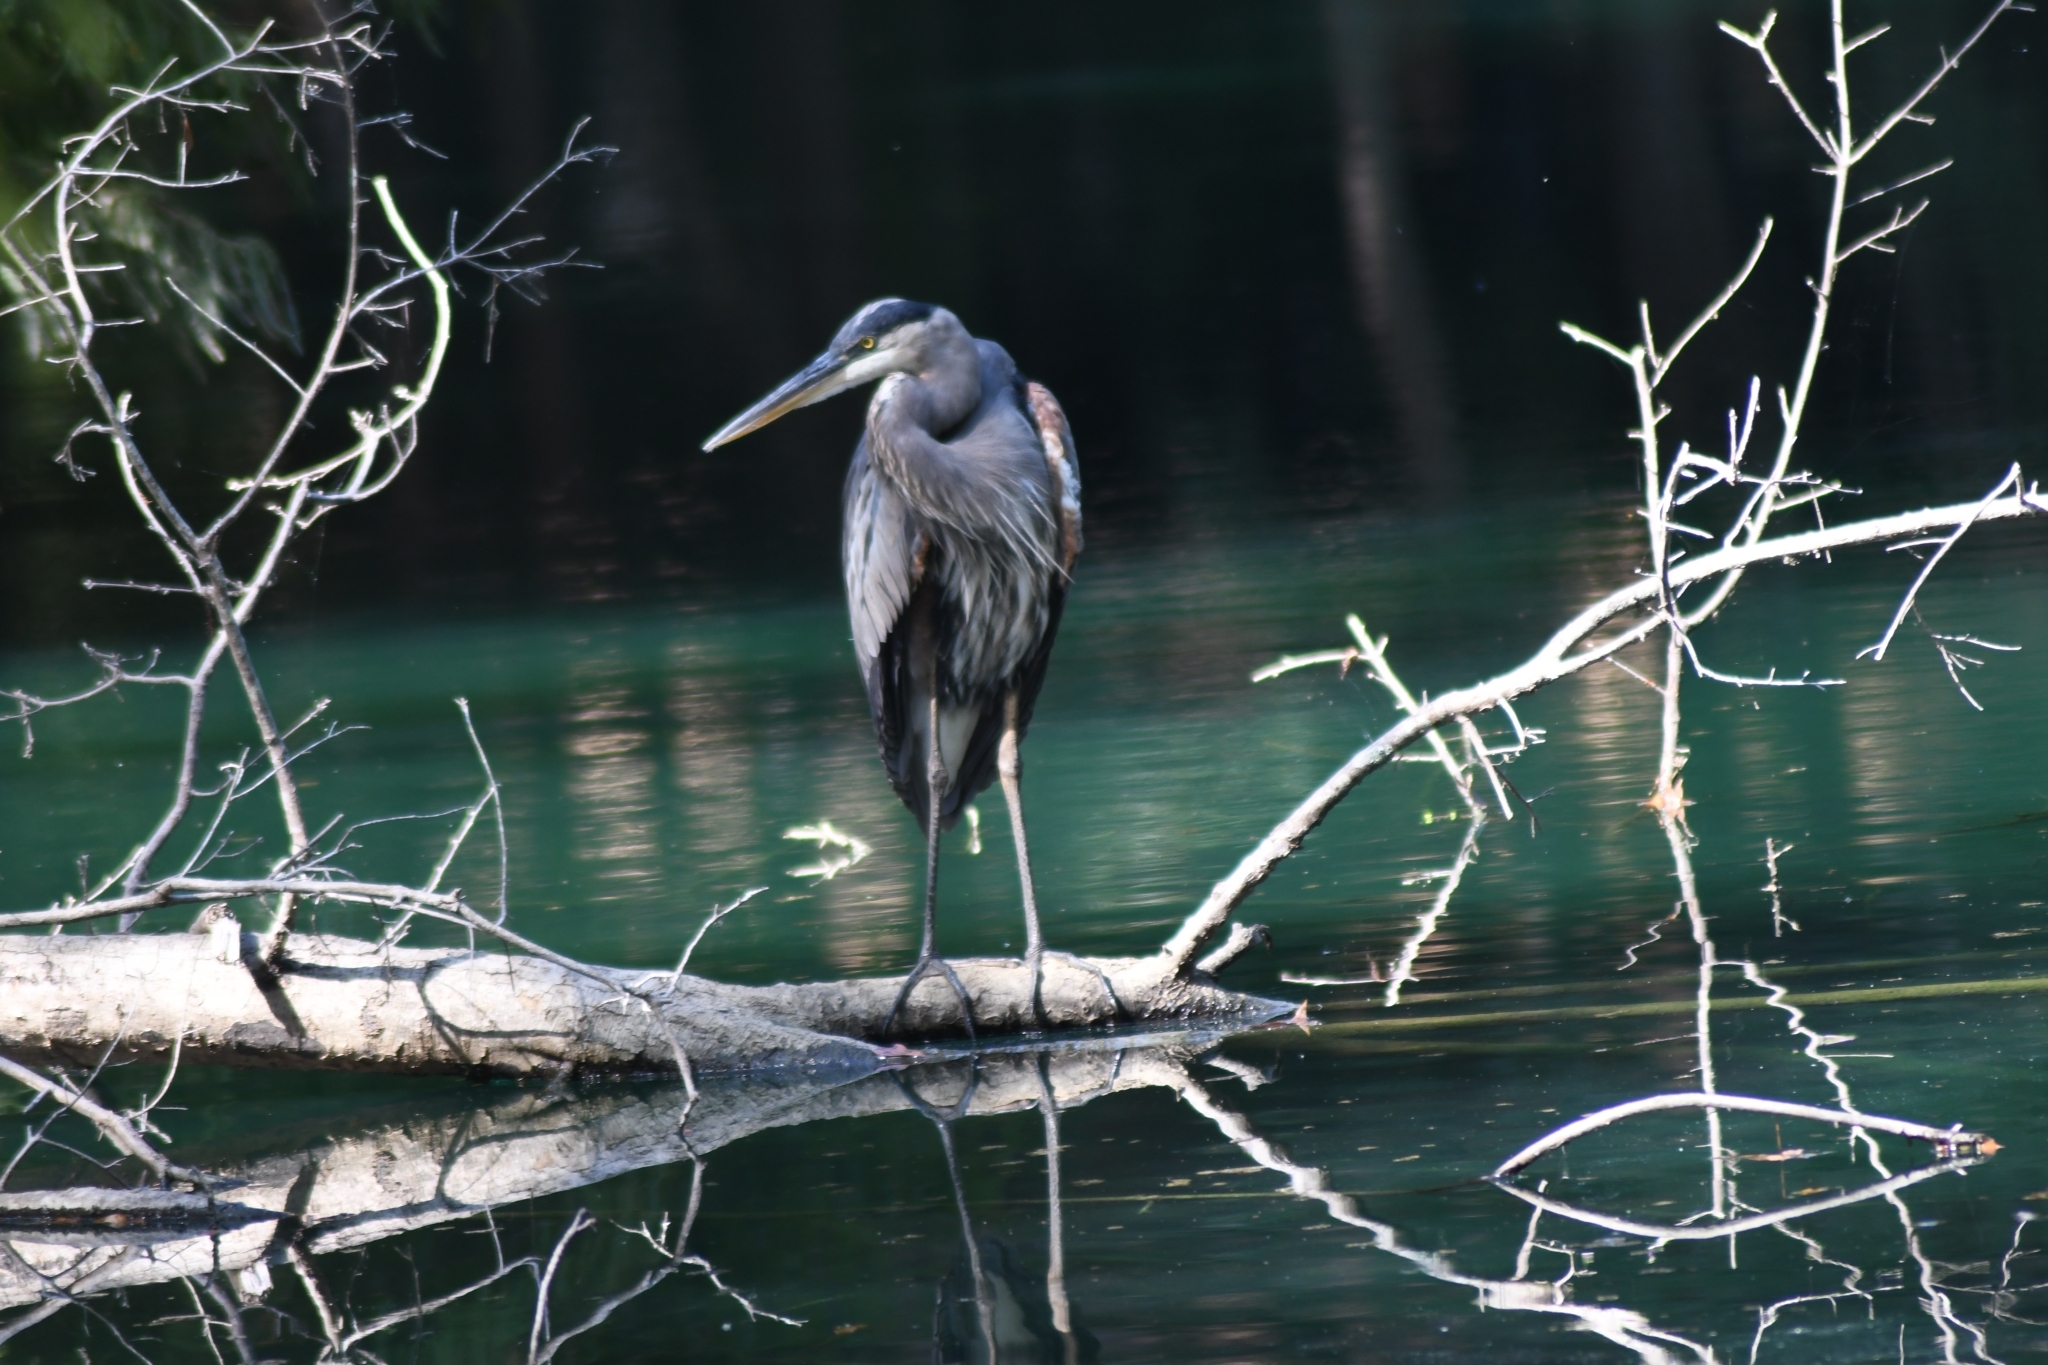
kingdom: Animalia
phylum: Chordata
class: Aves
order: Pelecaniformes
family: Ardeidae
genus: Ardea
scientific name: Ardea herodias
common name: Great blue heron
